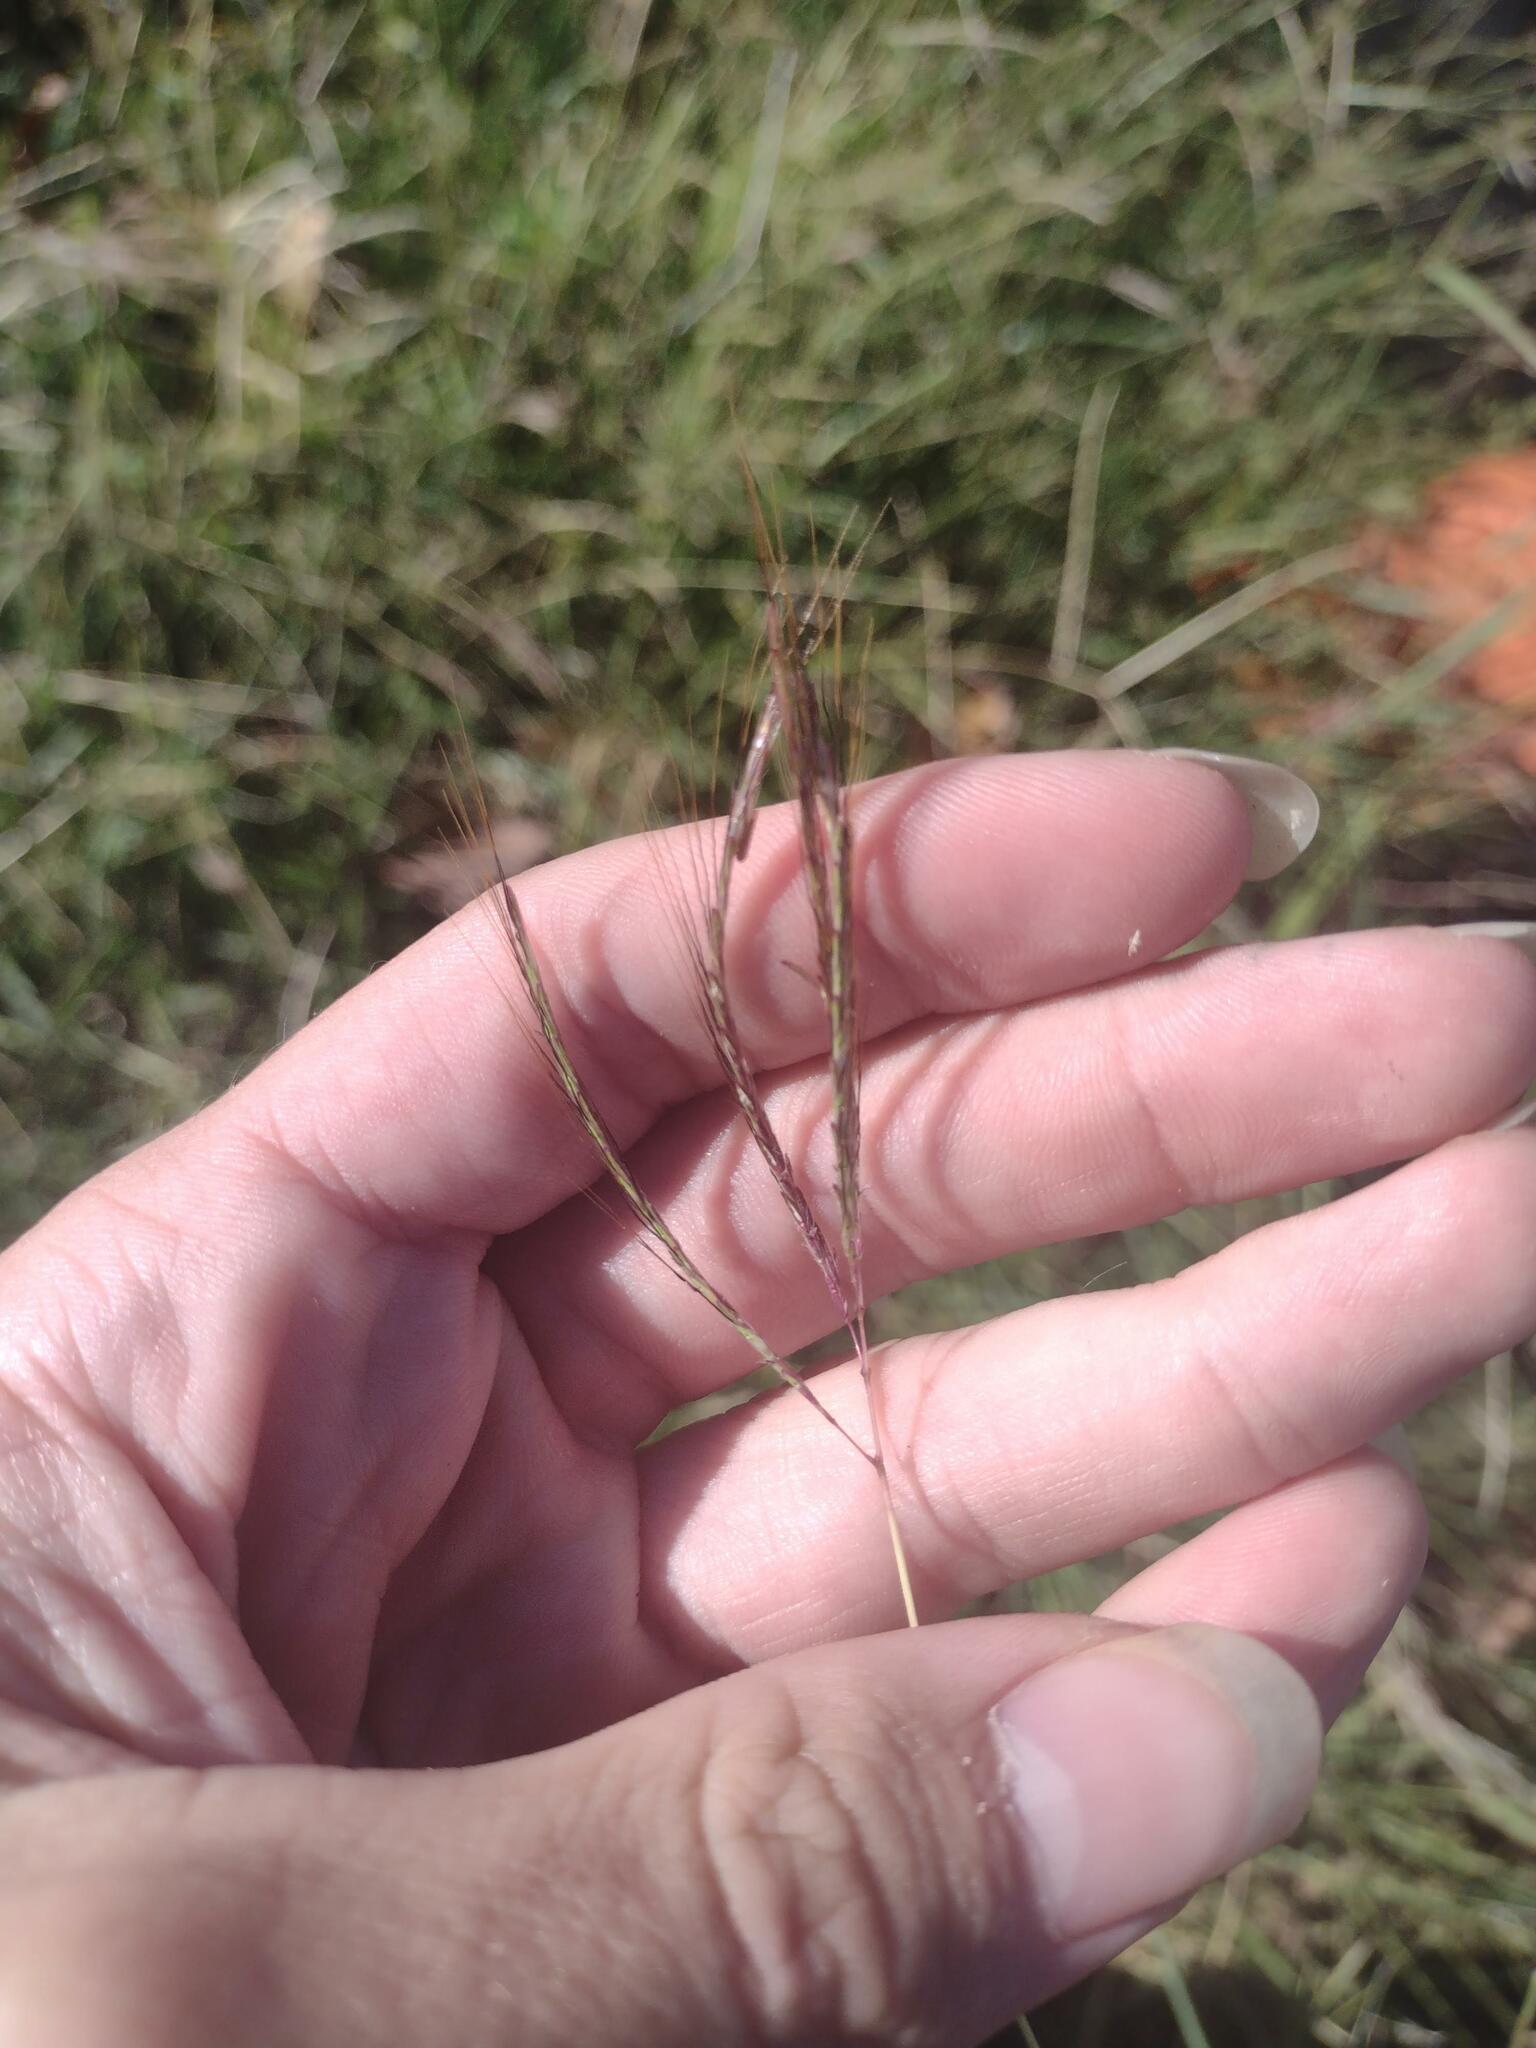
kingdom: Plantae
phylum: Tracheophyta
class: Liliopsida
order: Poales
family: Poaceae
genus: Bothriochloa
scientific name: Bothriochloa pertusa
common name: Pitted beardgrass
